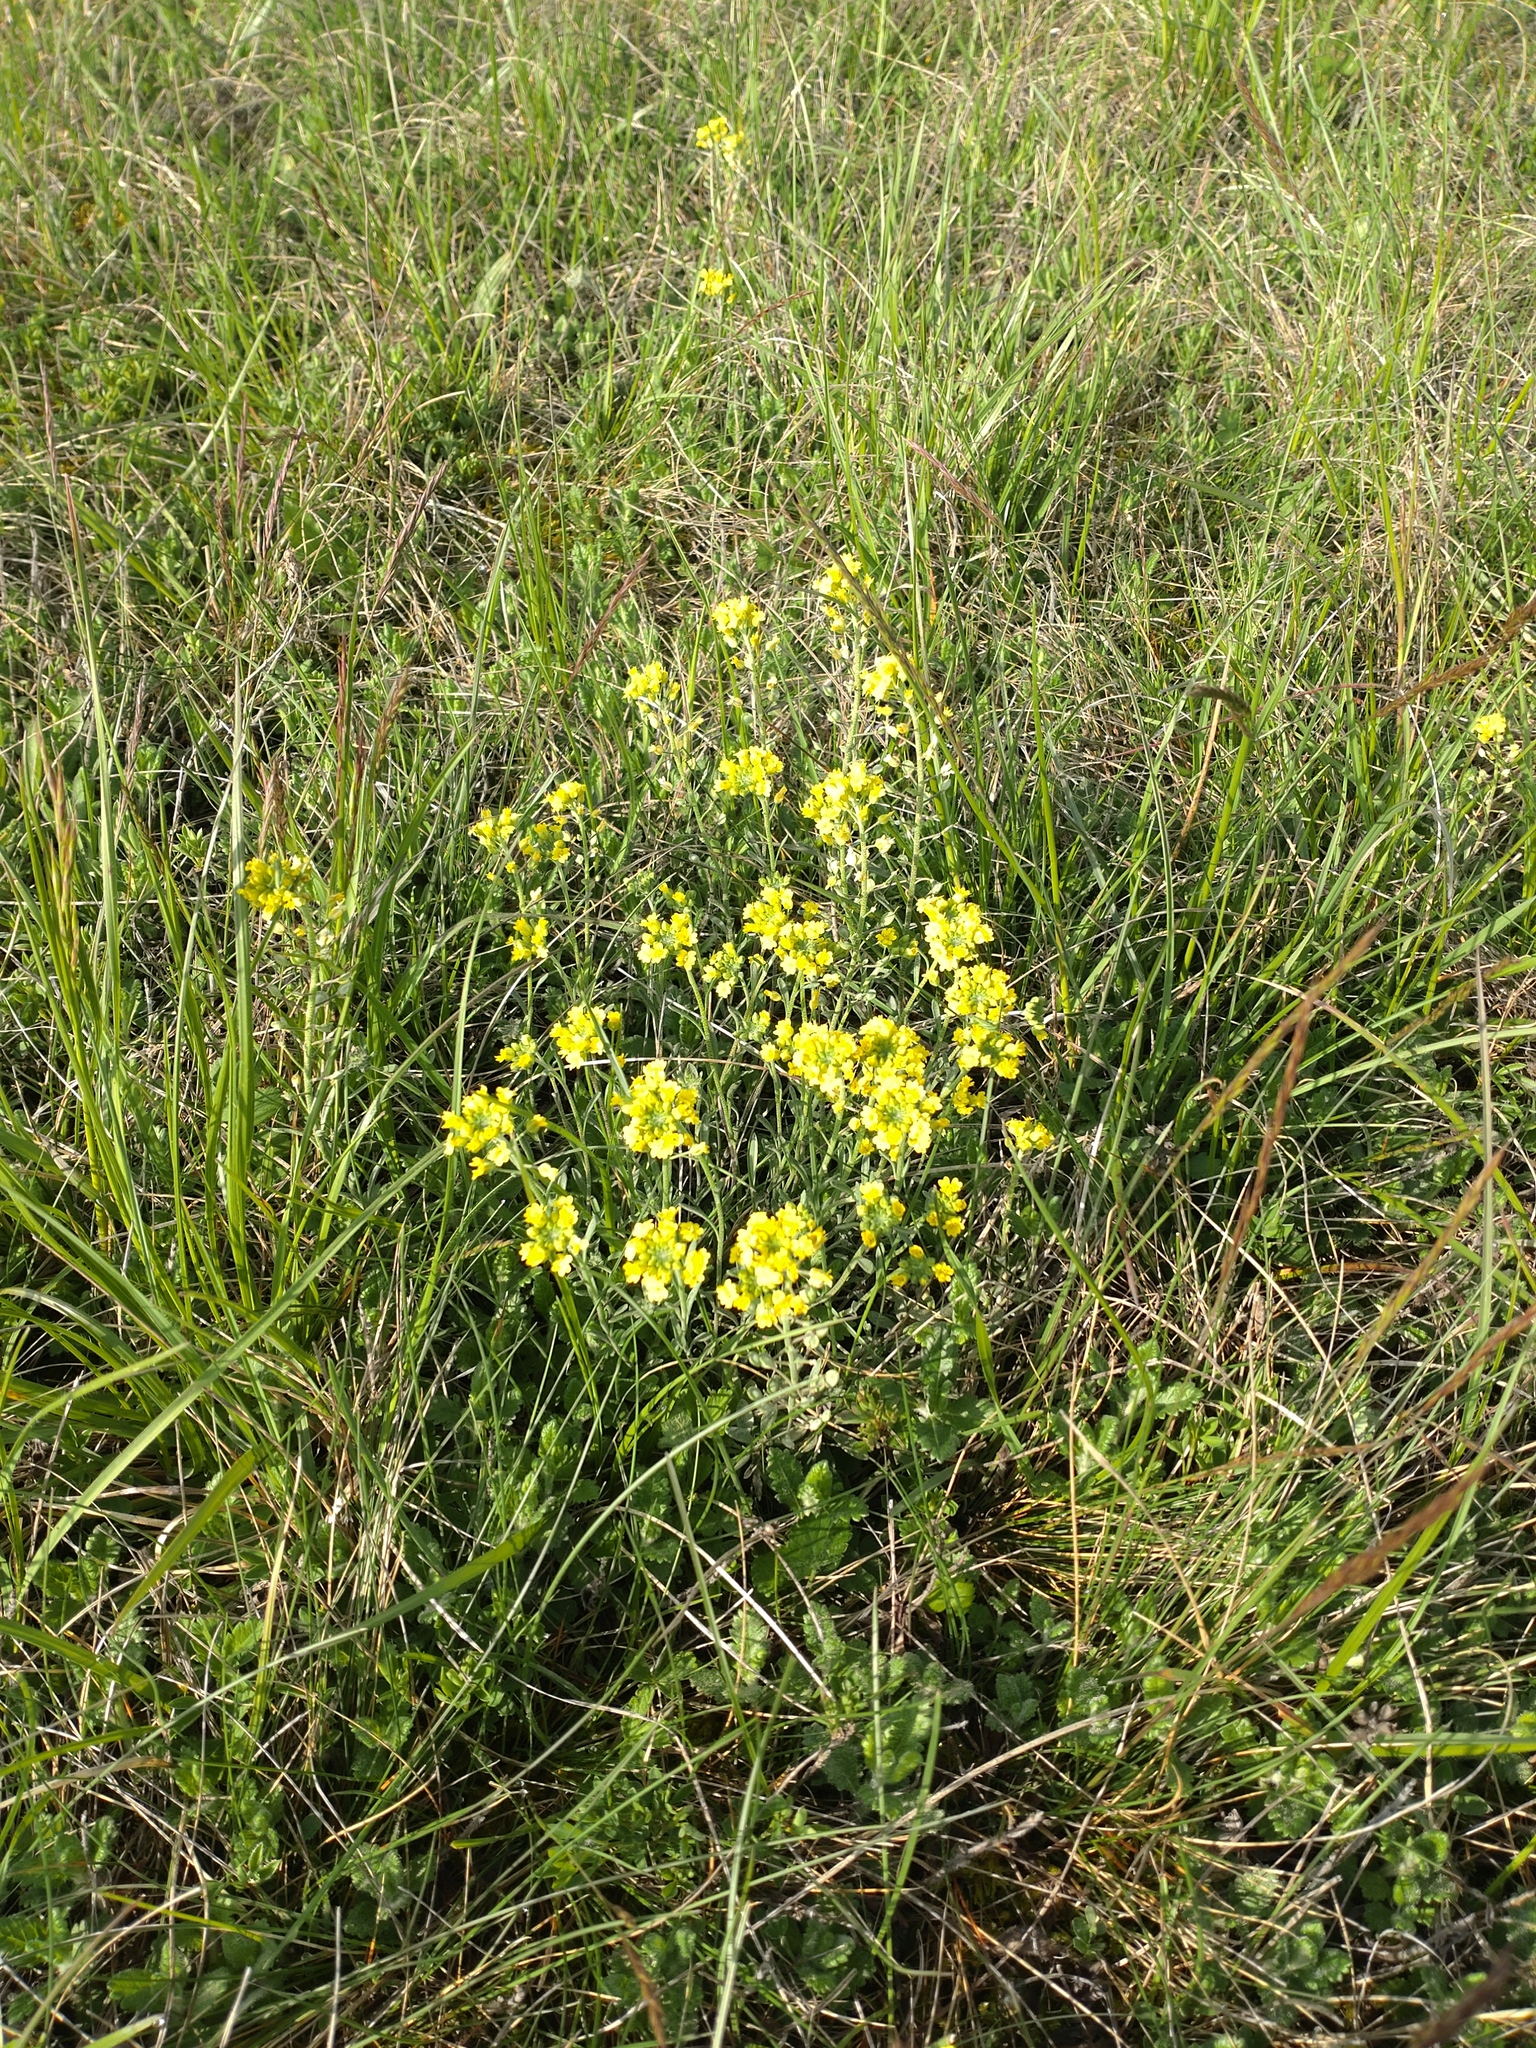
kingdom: Plantae
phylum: Tracheophyta
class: Magnoliopsida
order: Brassicales
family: Brassicaceae
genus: Alyssum
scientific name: Alyssum gmelinii
